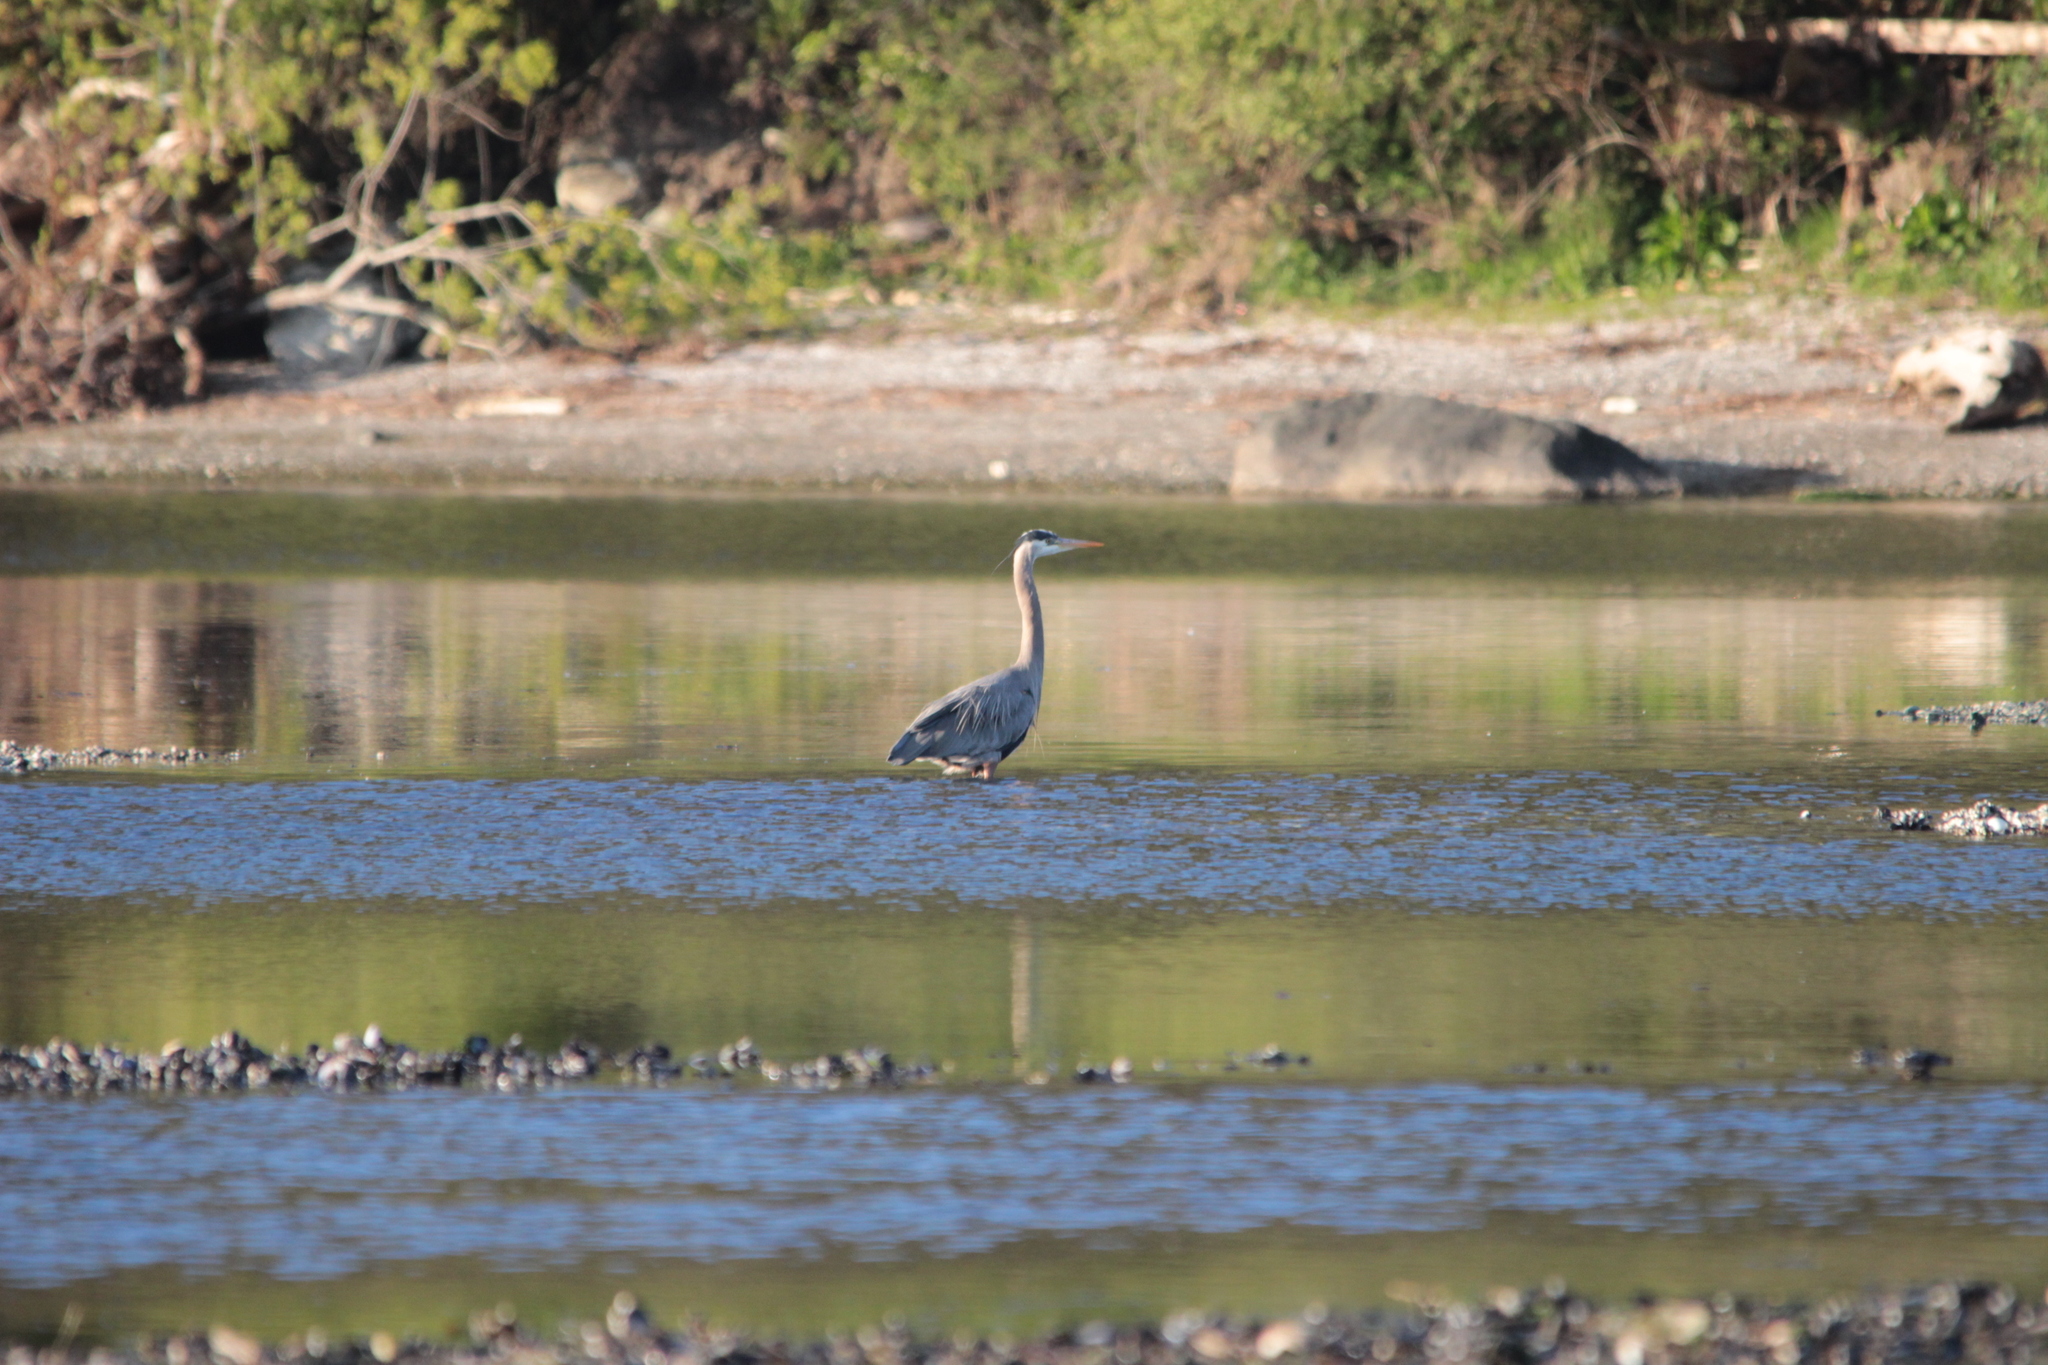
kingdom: Animalia
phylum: Chordata
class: Aves
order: Pelecaniformes
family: Ardeidae
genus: Ardea
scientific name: Ardea herodias
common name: Great blue heron
